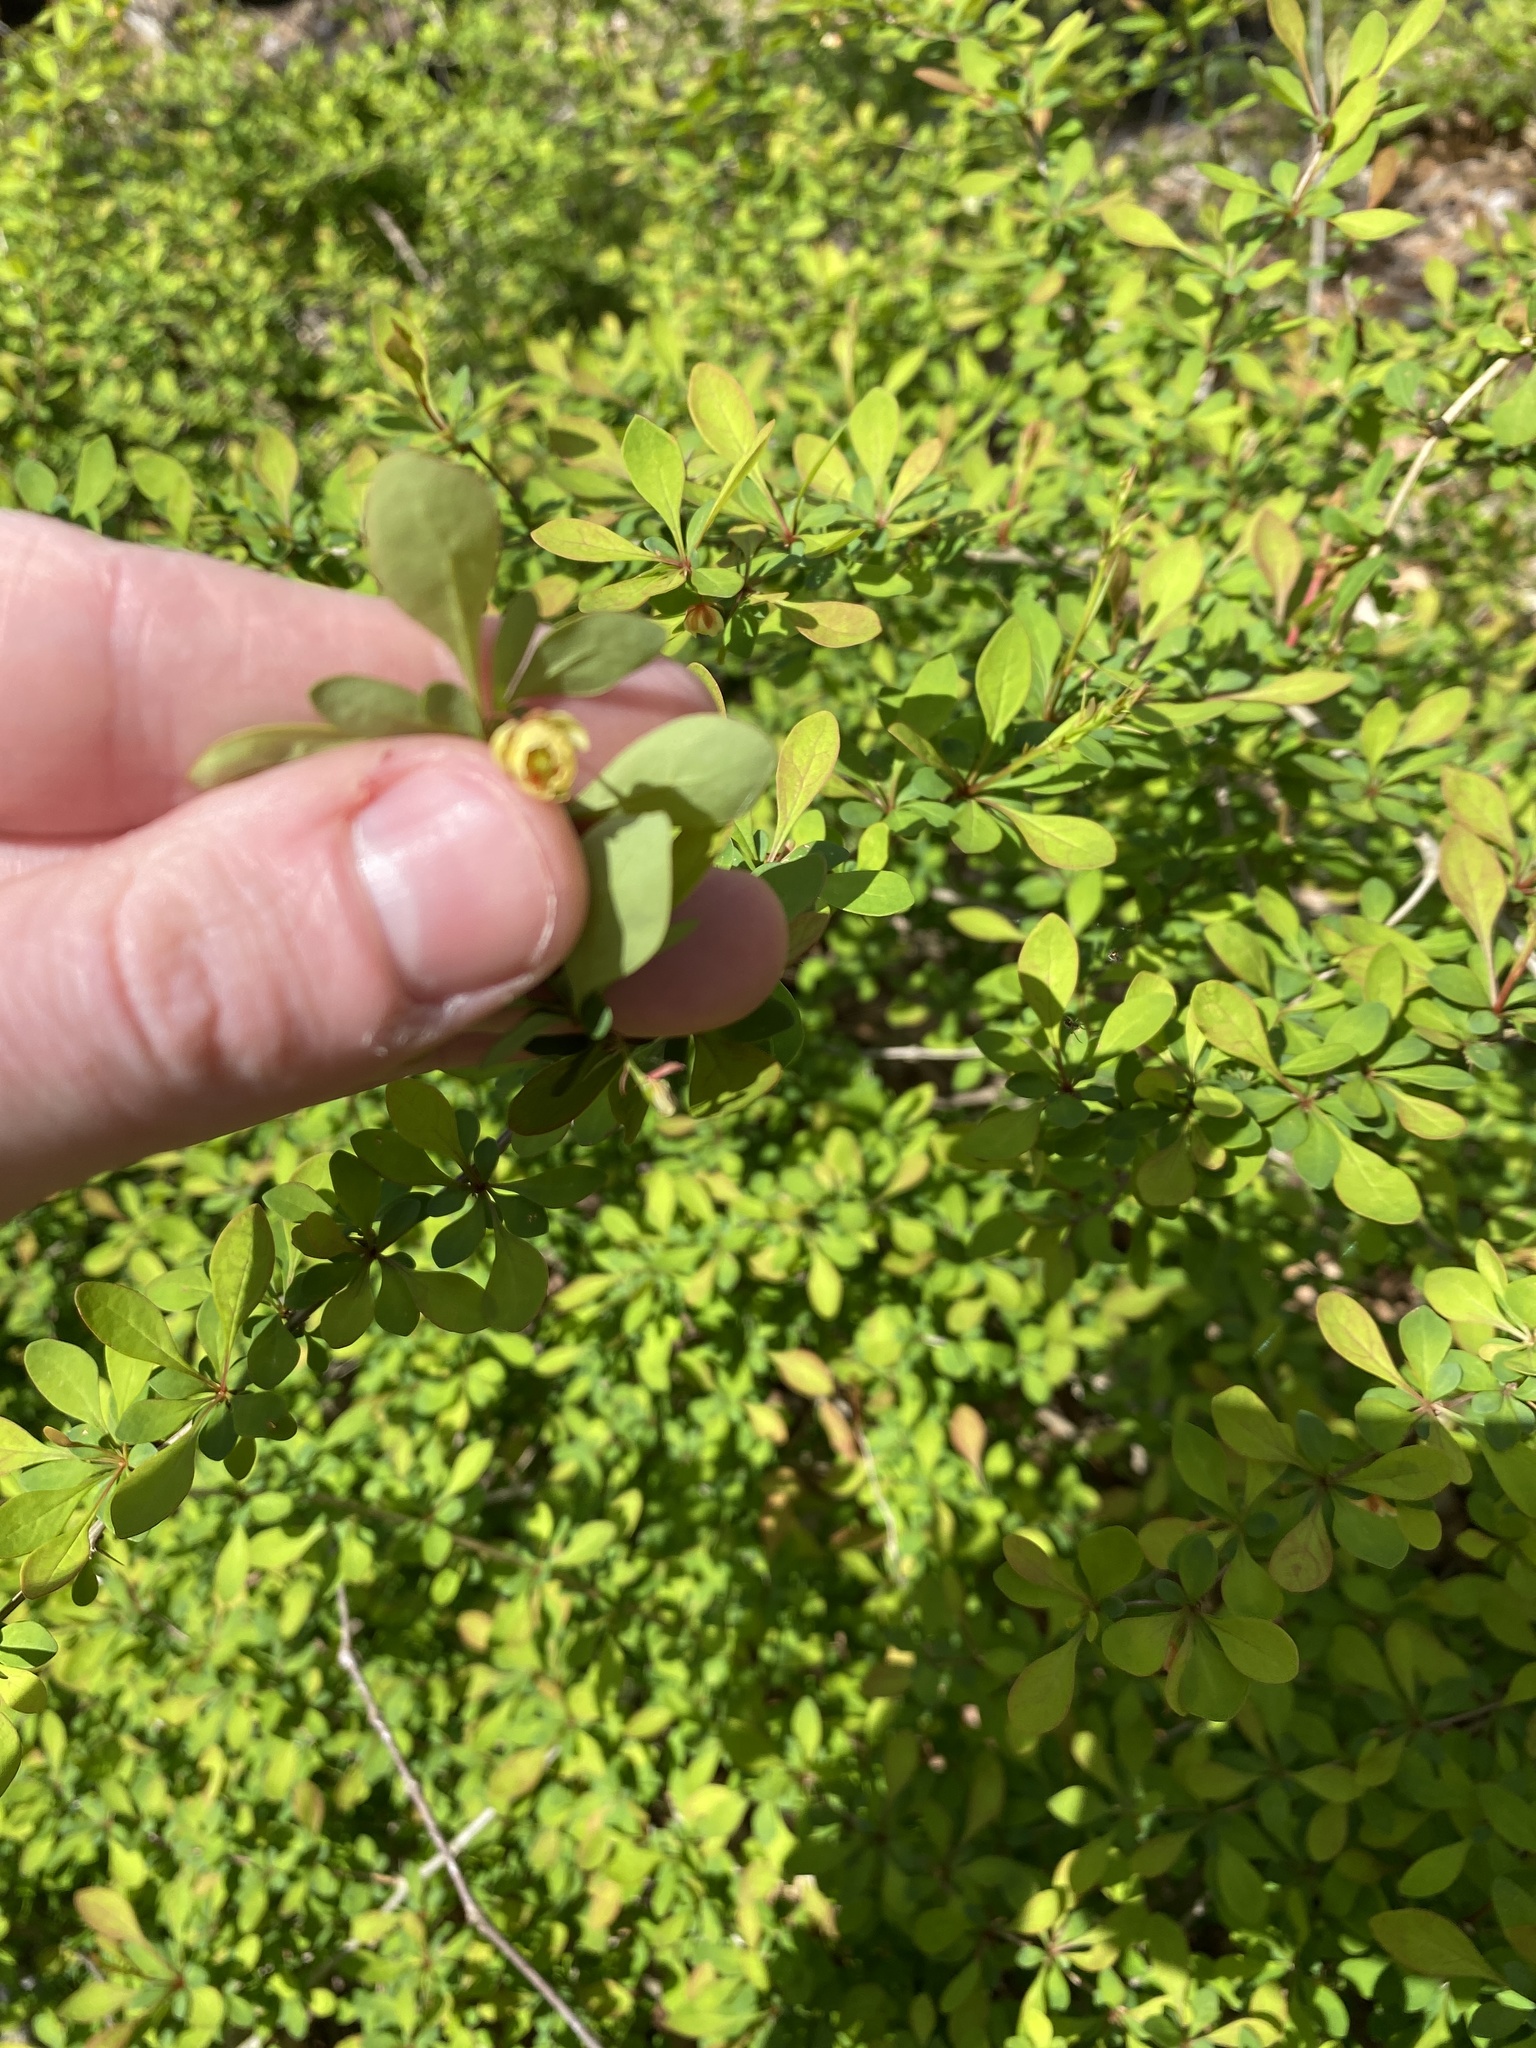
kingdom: Plantae
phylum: Tracheophyta
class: Magnoliopsida
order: Ranunculales
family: Berberidaceae
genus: Berberis
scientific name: Berberis thunbergii
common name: Japanese barberry
